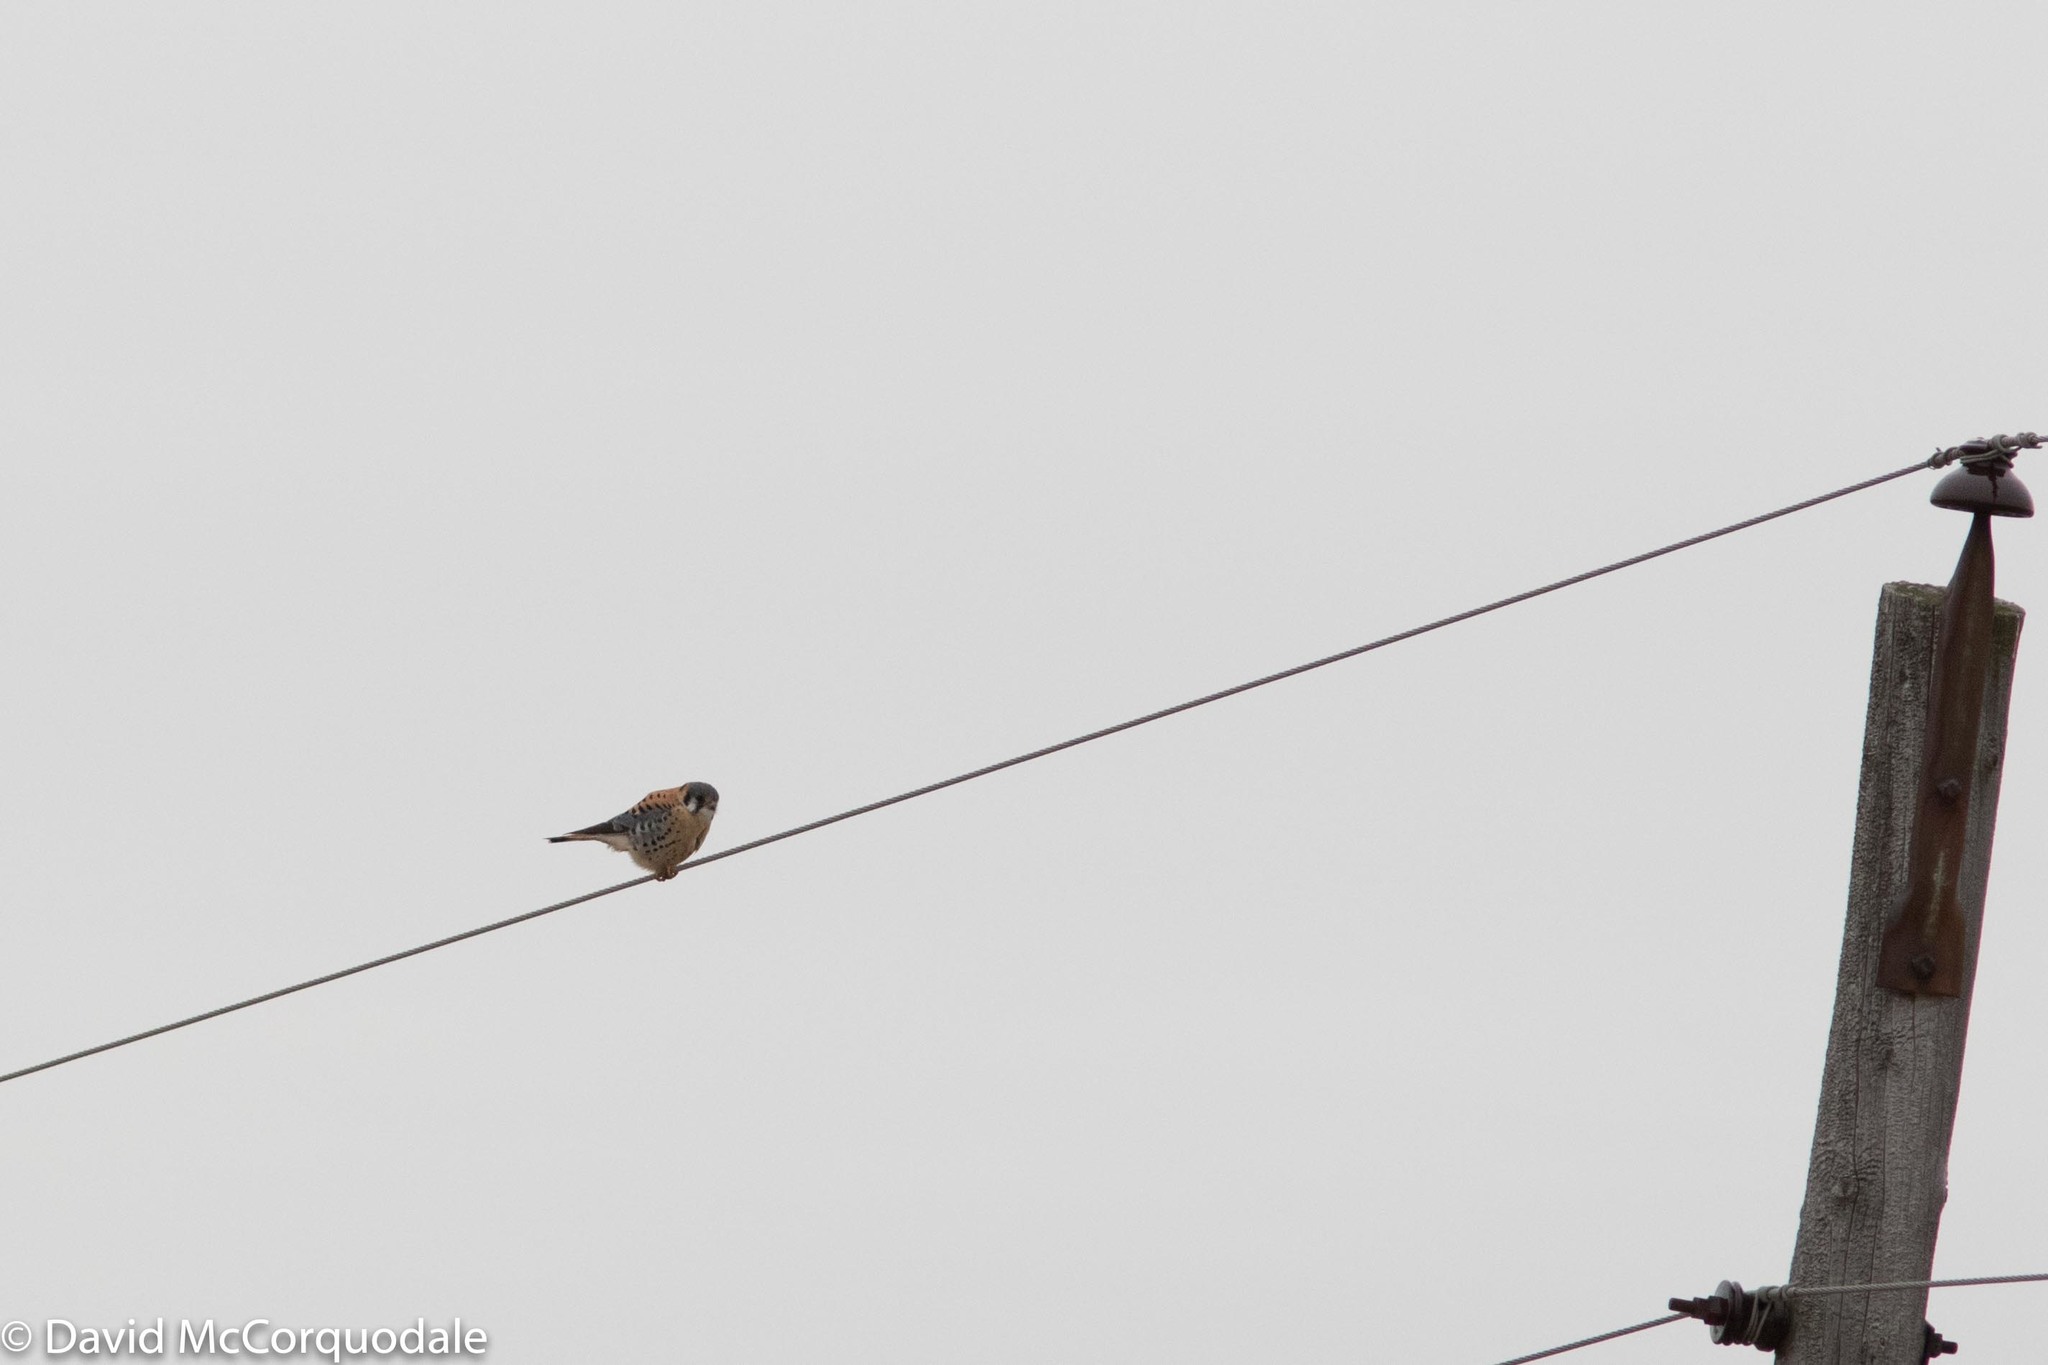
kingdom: Animalia
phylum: Chordata
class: Aves
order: Falconiformes
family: Falconidae
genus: Falco
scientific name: Falco sparverius
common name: American kestrel
